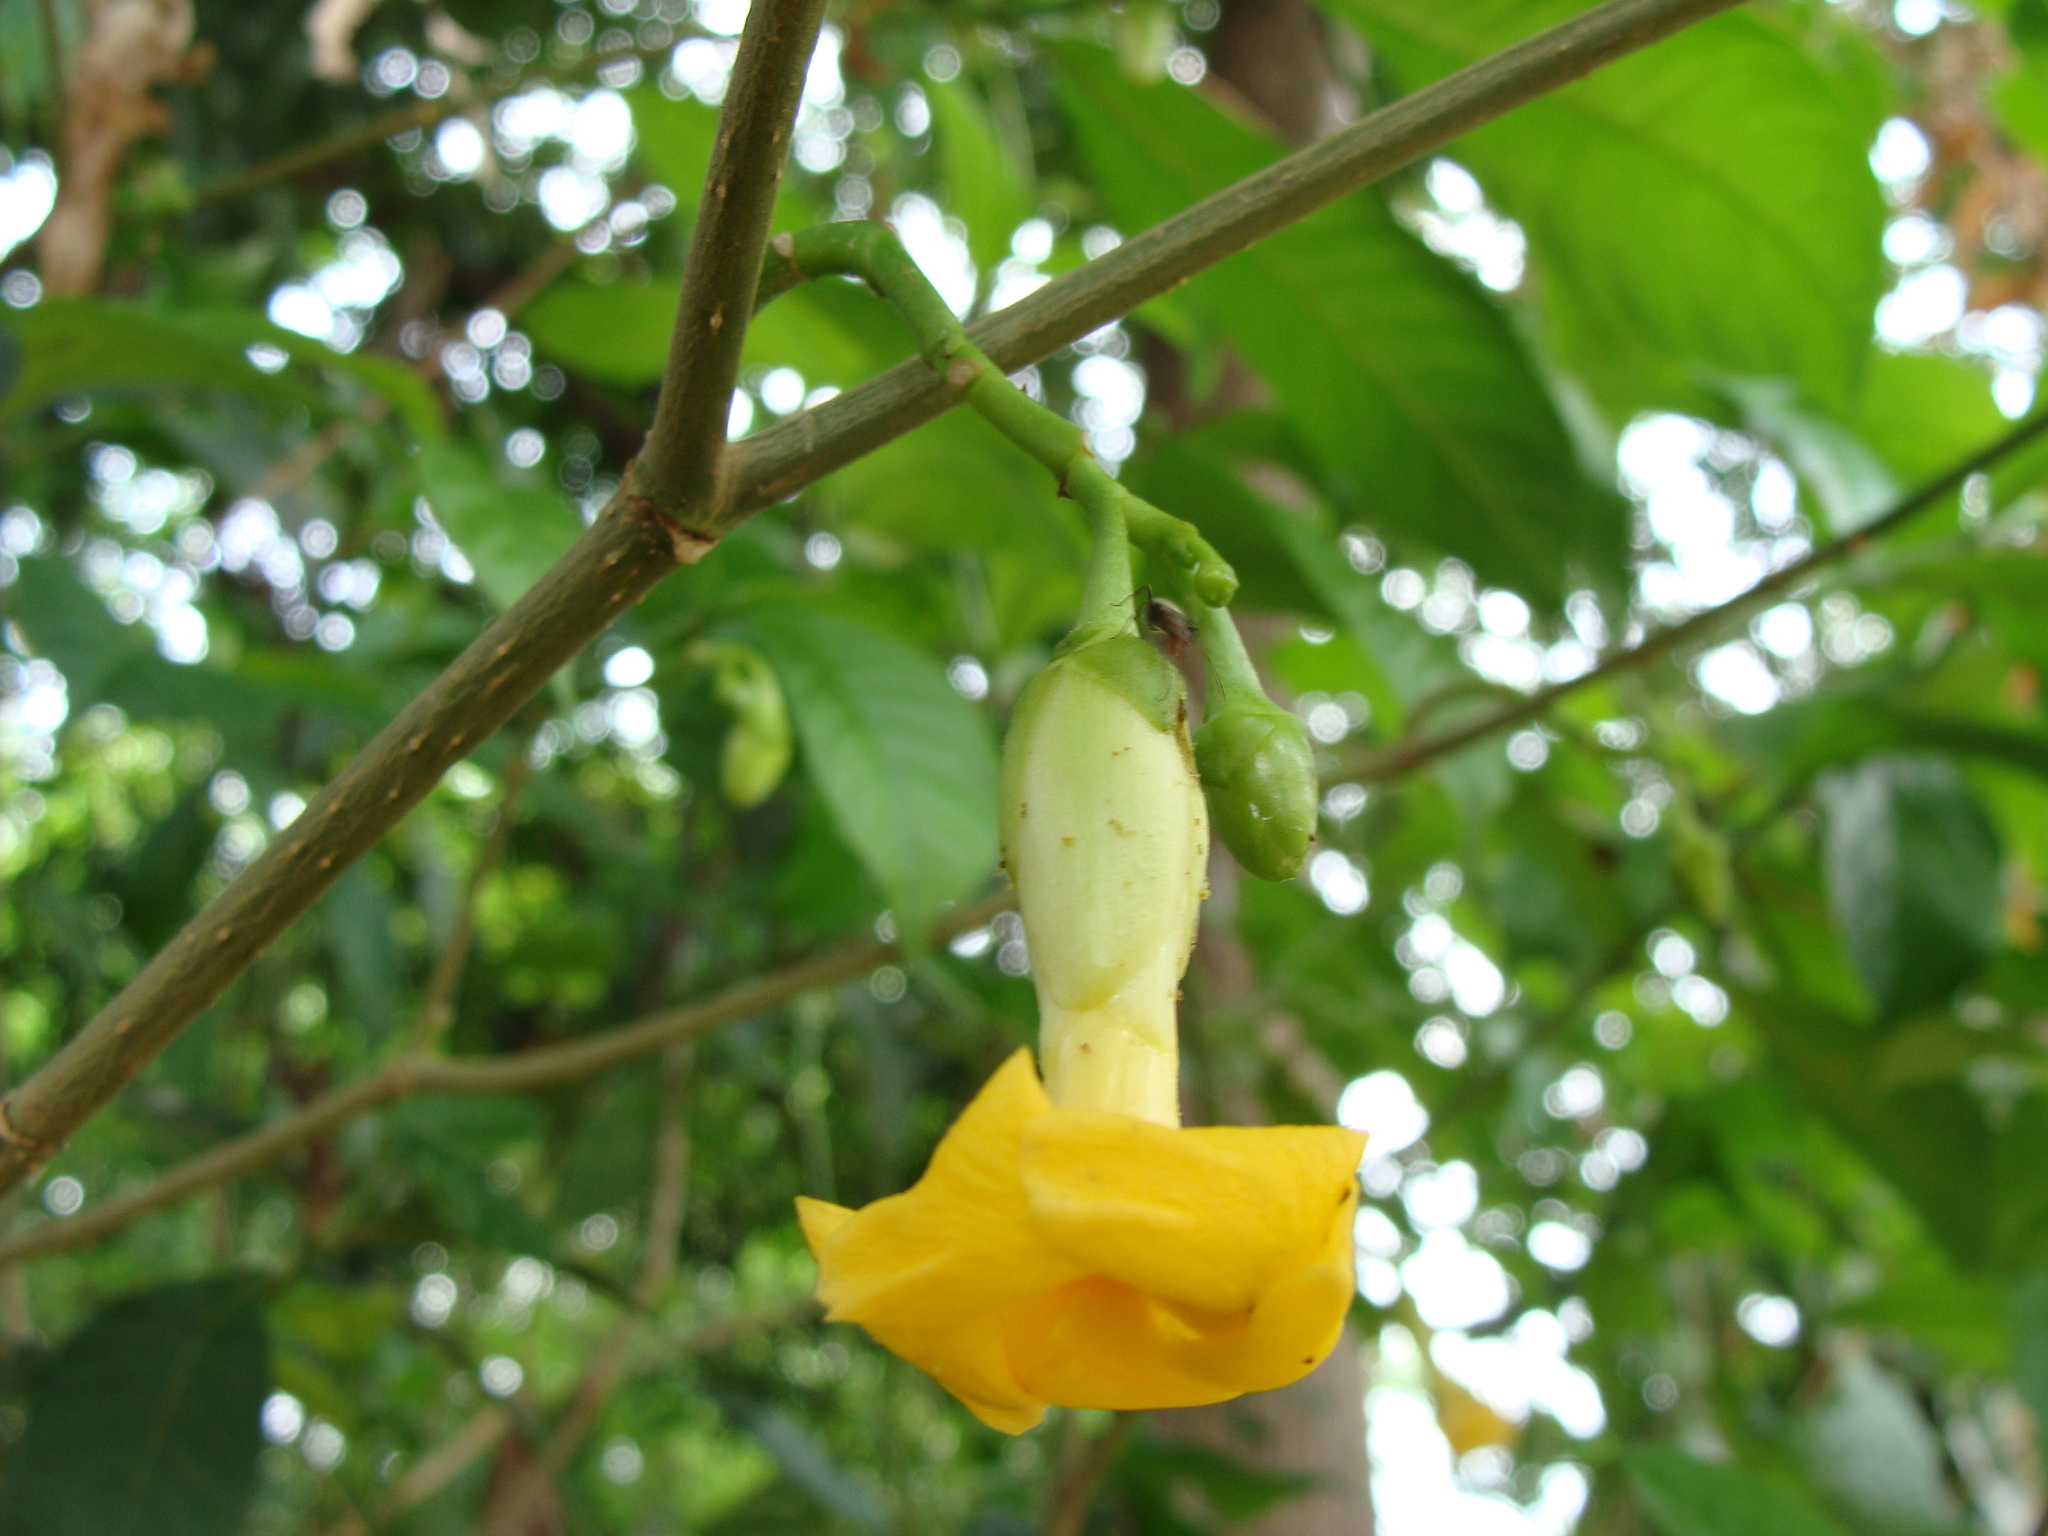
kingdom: Plantae
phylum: Tracheophyta
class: Magnoliopsida
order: Gentianales
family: Apocynaceae
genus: Tabernaemontana
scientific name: Tabernaemontana donnell-smithii
